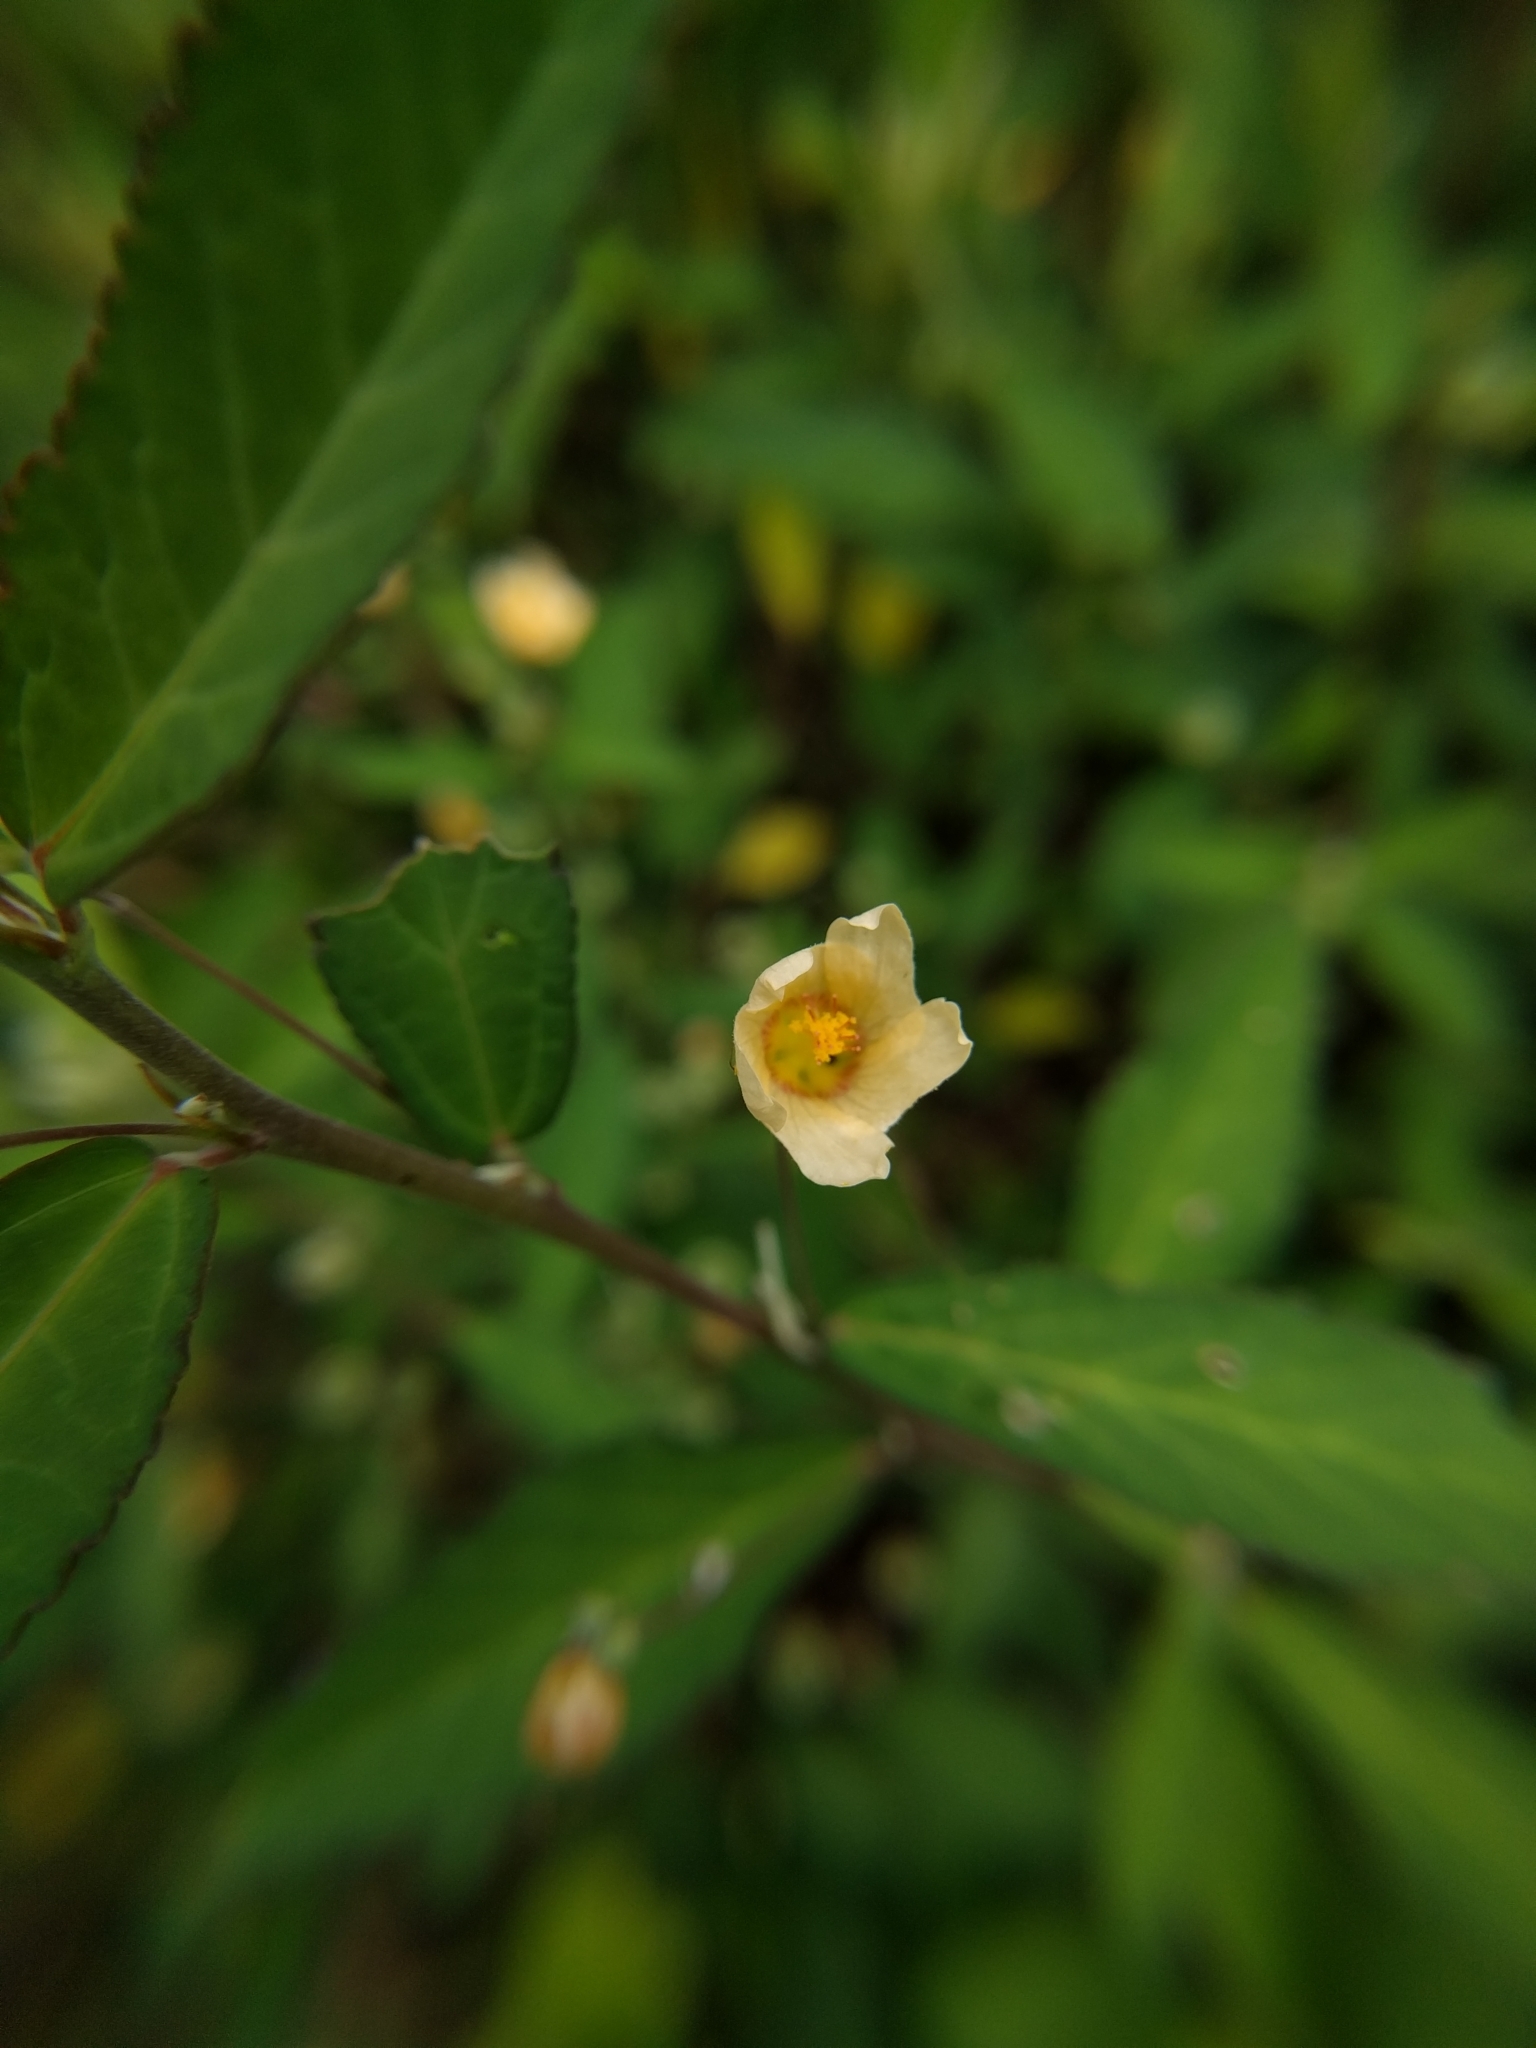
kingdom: Plantae
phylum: Tracheophyta
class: Magnoliopsida
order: Malvales
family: Malvaceae
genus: Sida
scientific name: Sida rhombifolia
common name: Queensland-hemp
